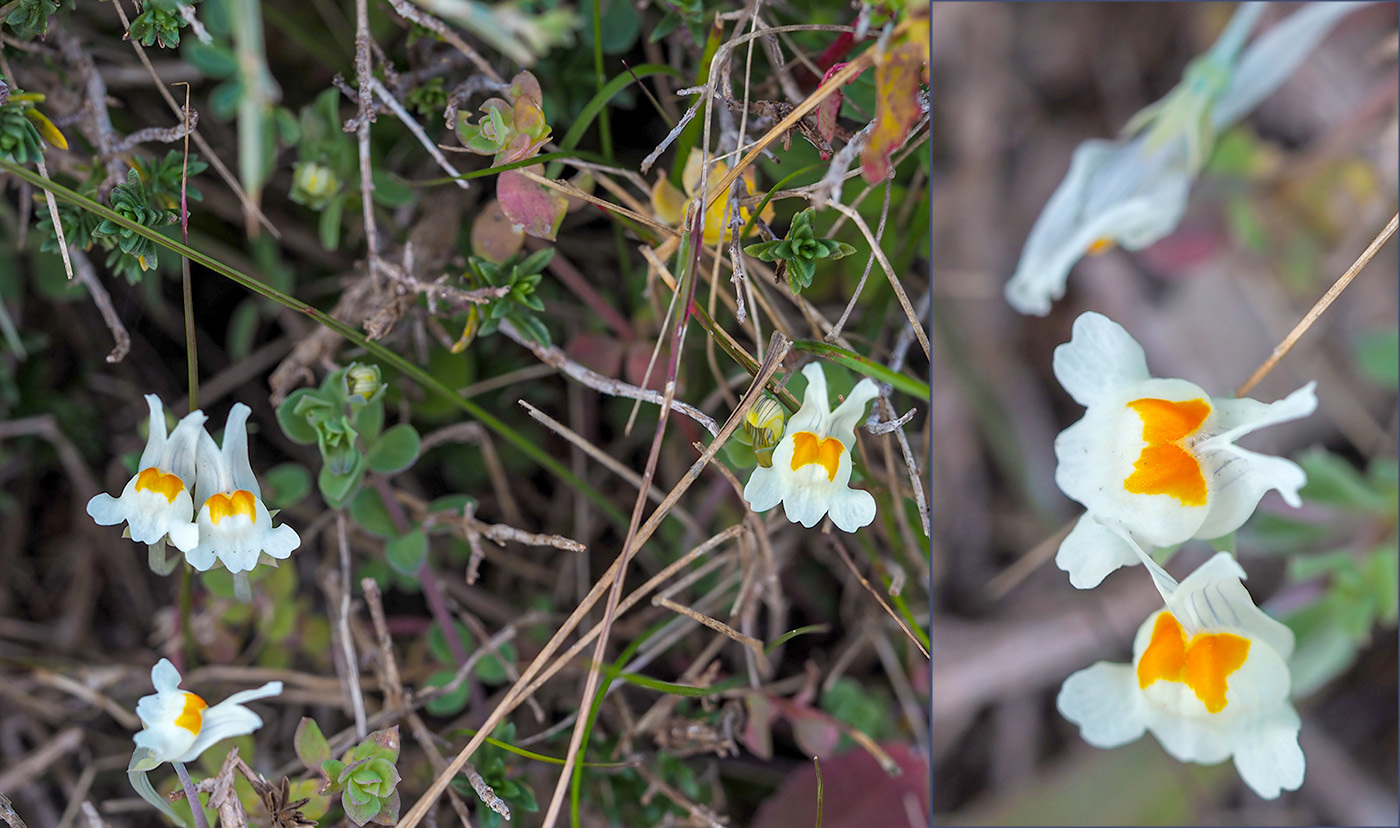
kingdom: Plantae
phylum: Tracheophyta
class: Magnoliopsida
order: Lamiales
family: Plantaginaceae
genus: Linaria
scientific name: Linaria reflexa
